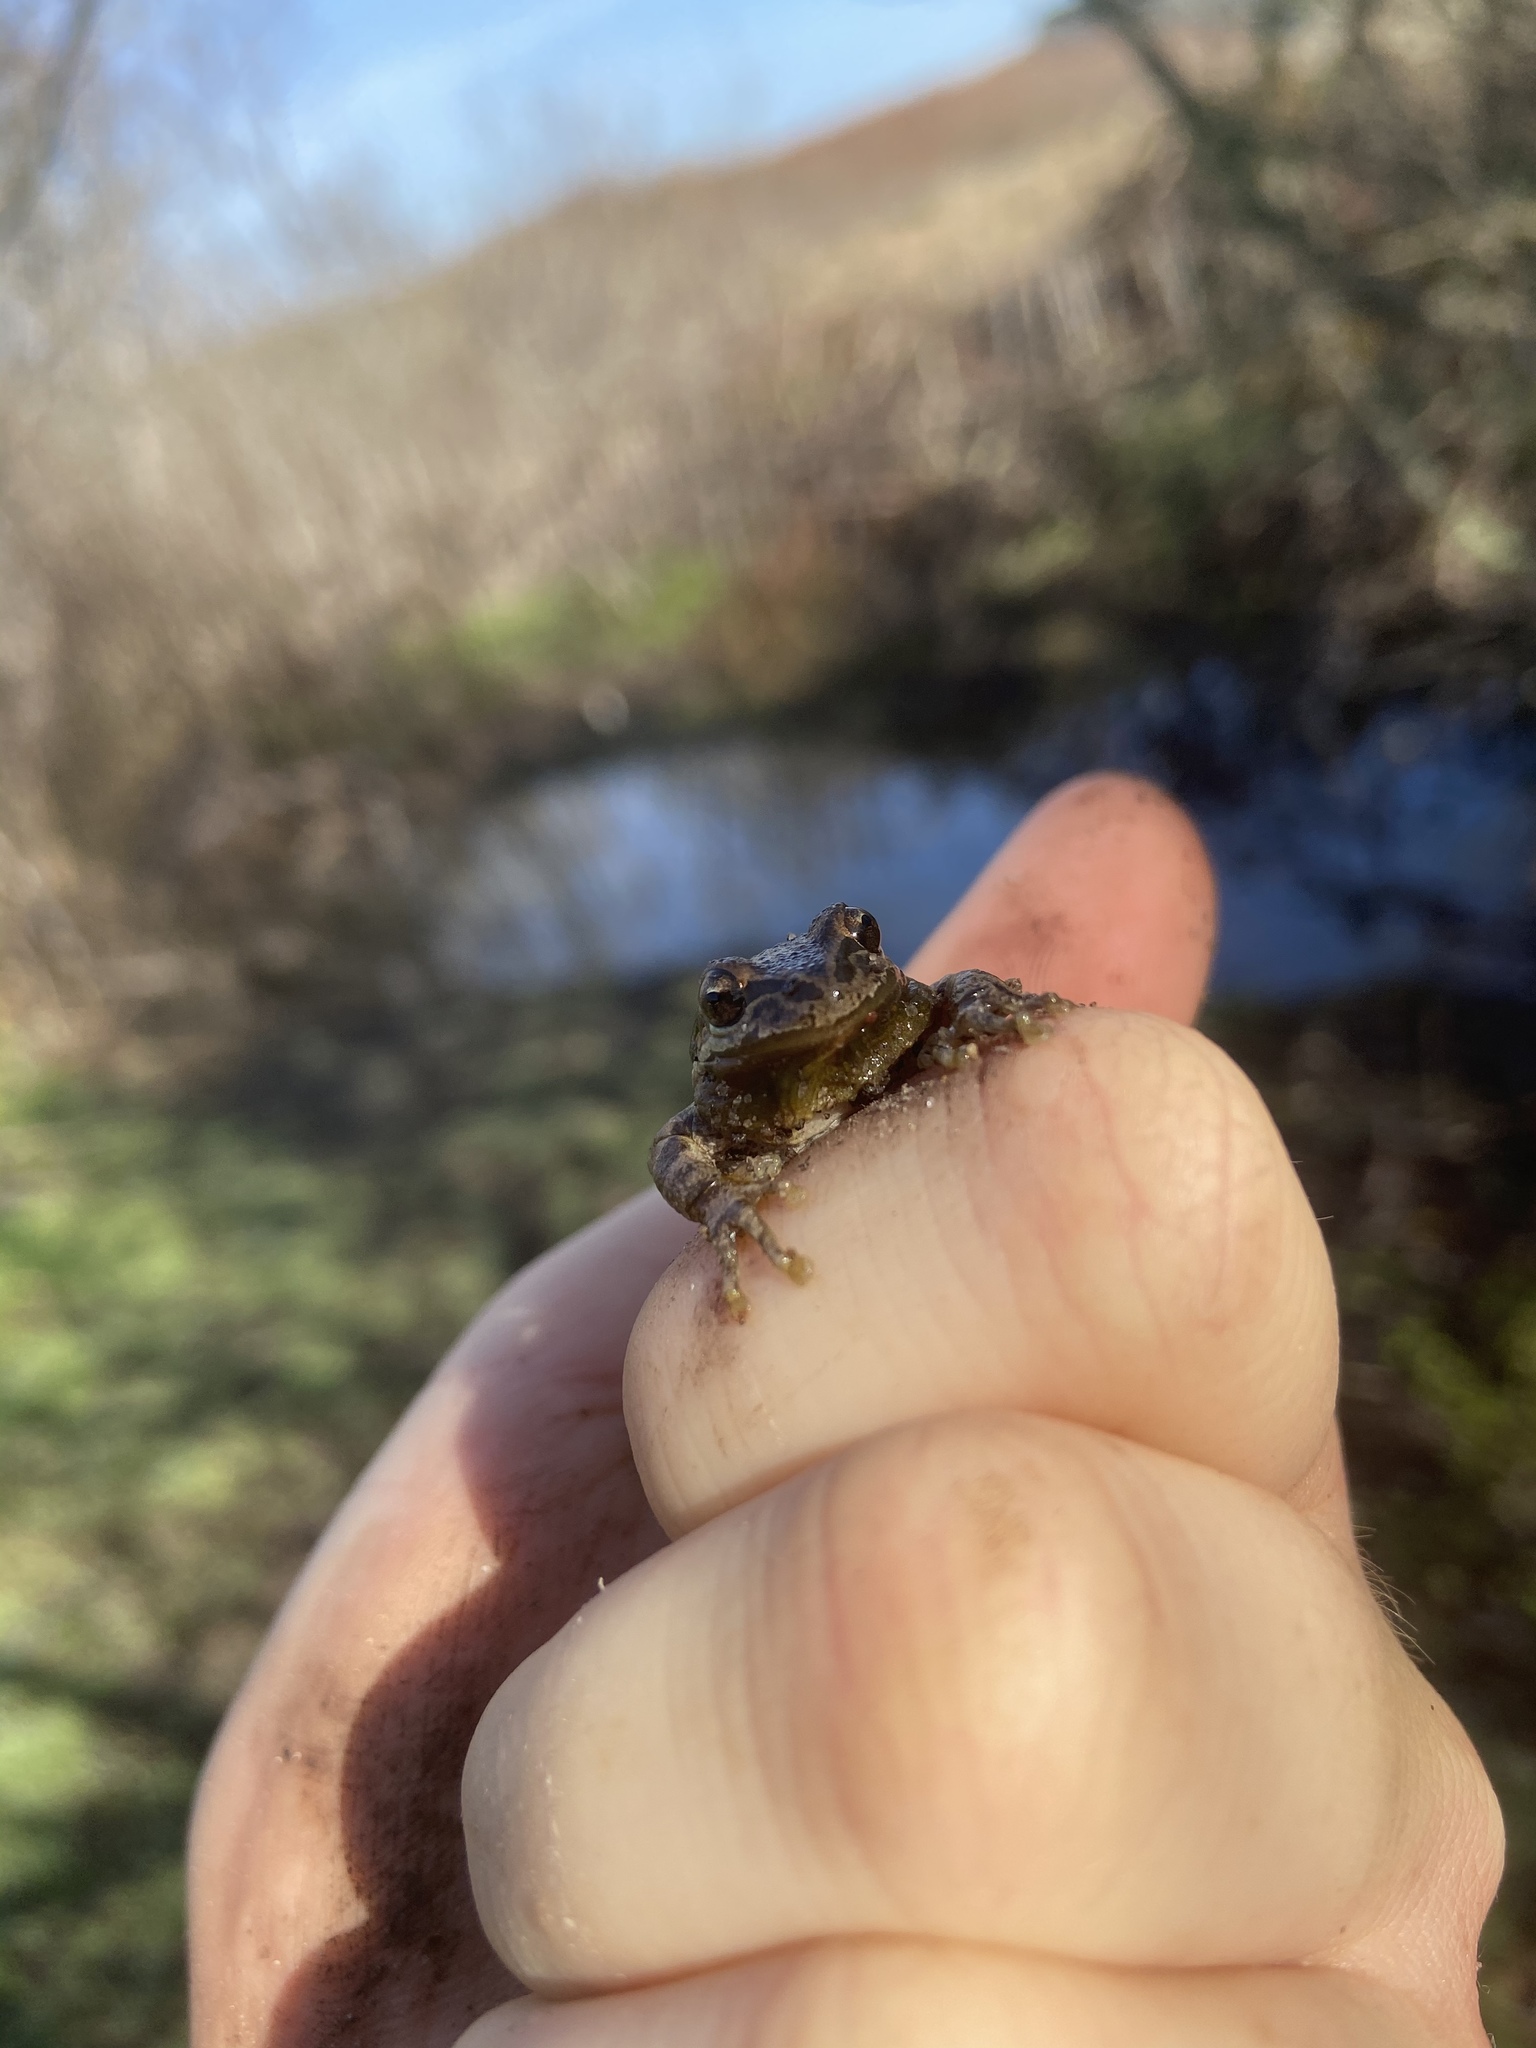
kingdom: Animalia
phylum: Chordata
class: Amphibia
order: Anura
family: Hylidae
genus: Pseudacris
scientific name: Pseudacris regilla
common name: Pacific chorus frog
